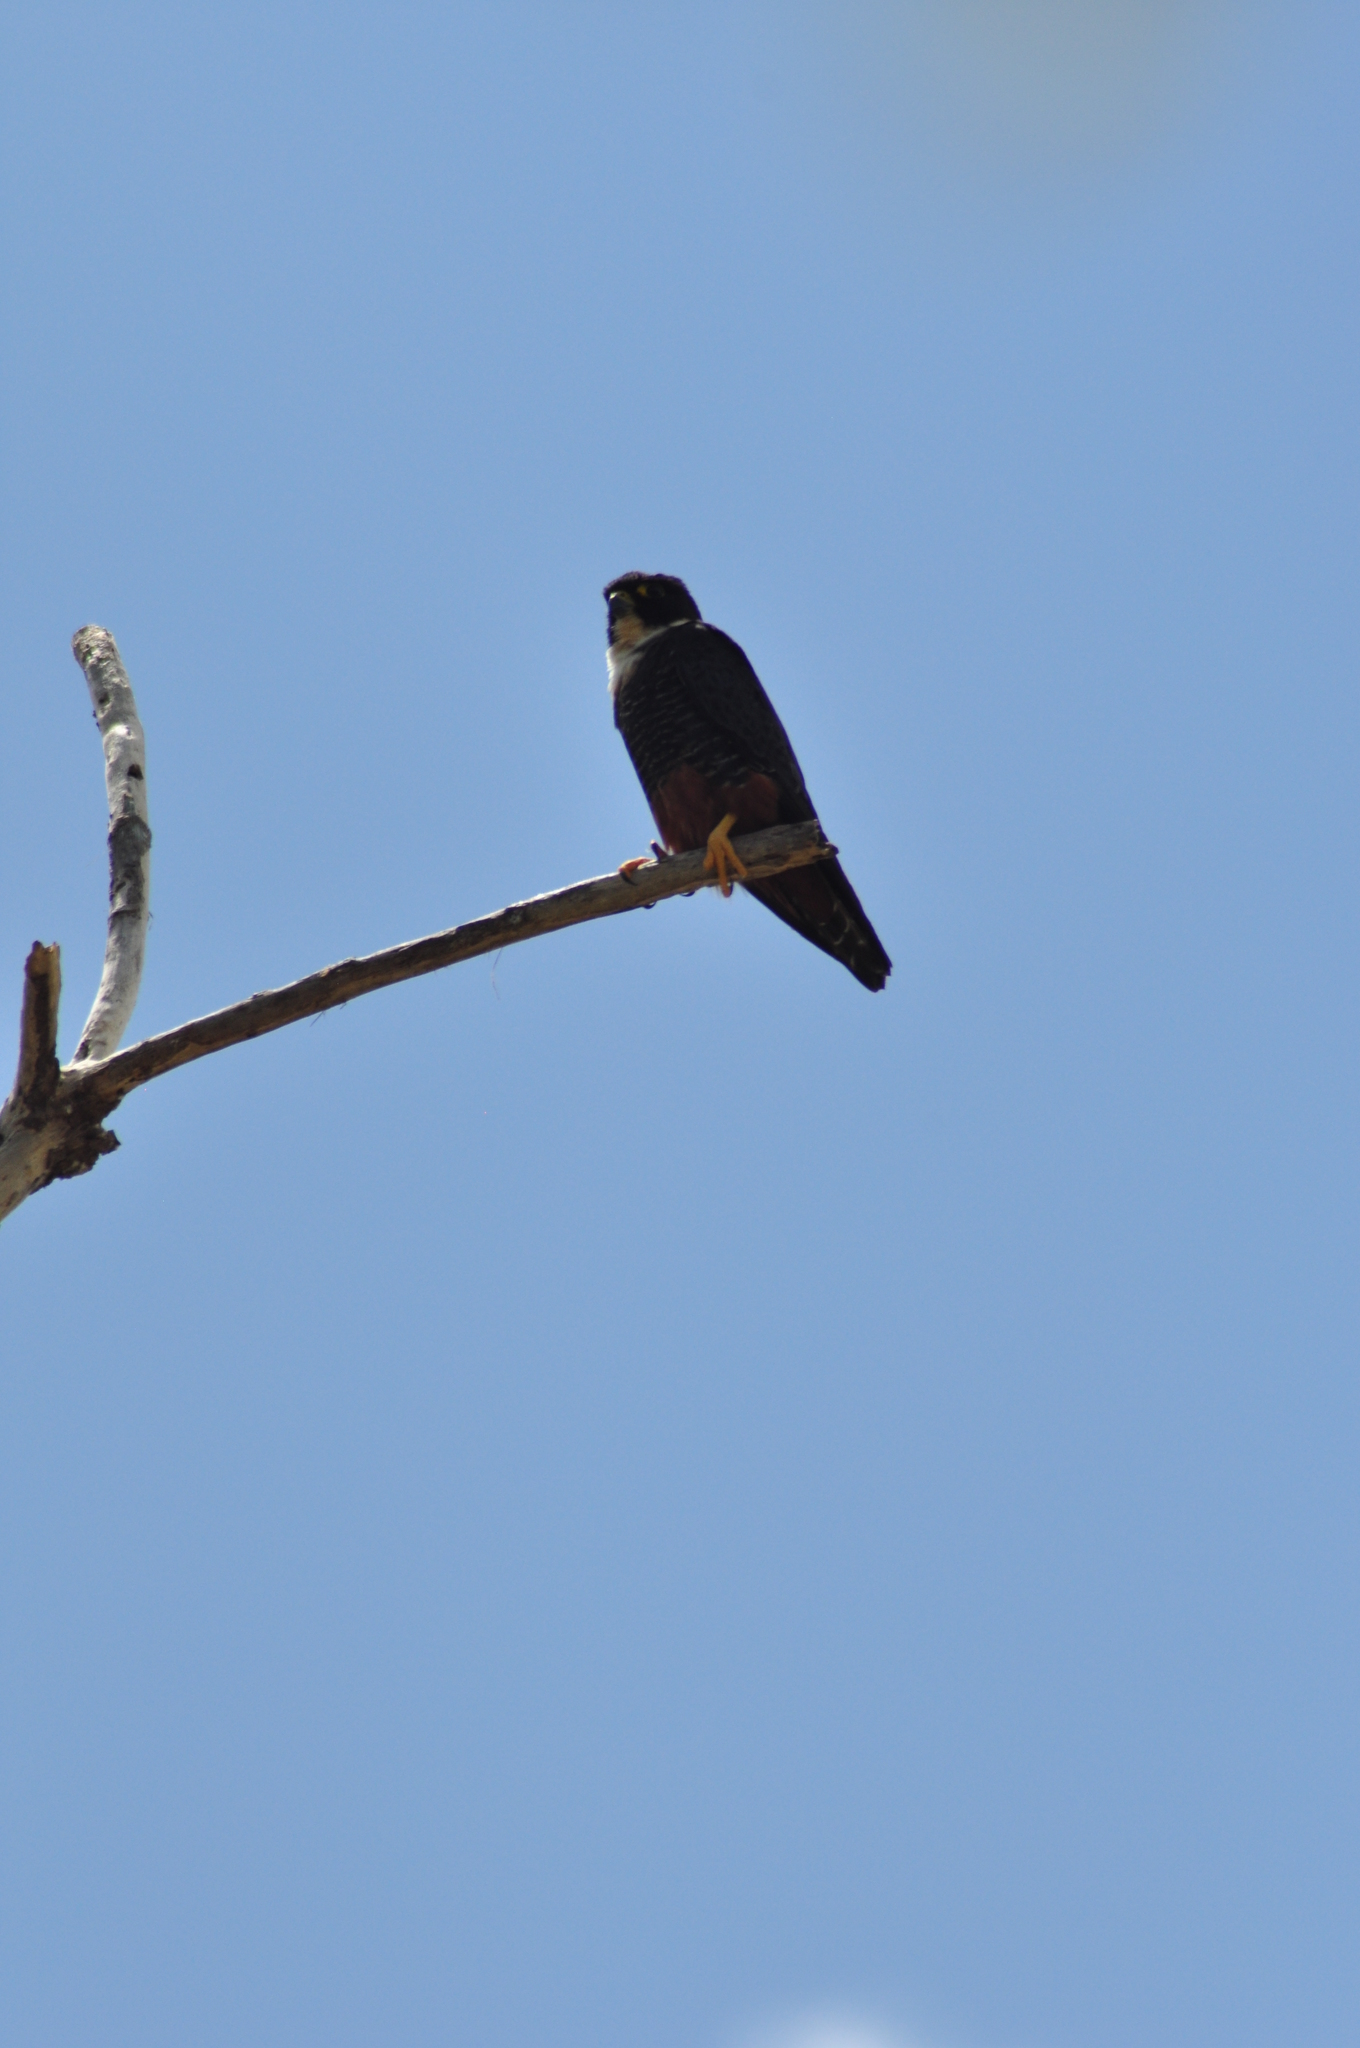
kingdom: Animalia
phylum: Chordata
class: Aves
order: Falconiformes
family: Falconidae
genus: Falco
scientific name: Falco rufigularis
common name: Bat falcon
